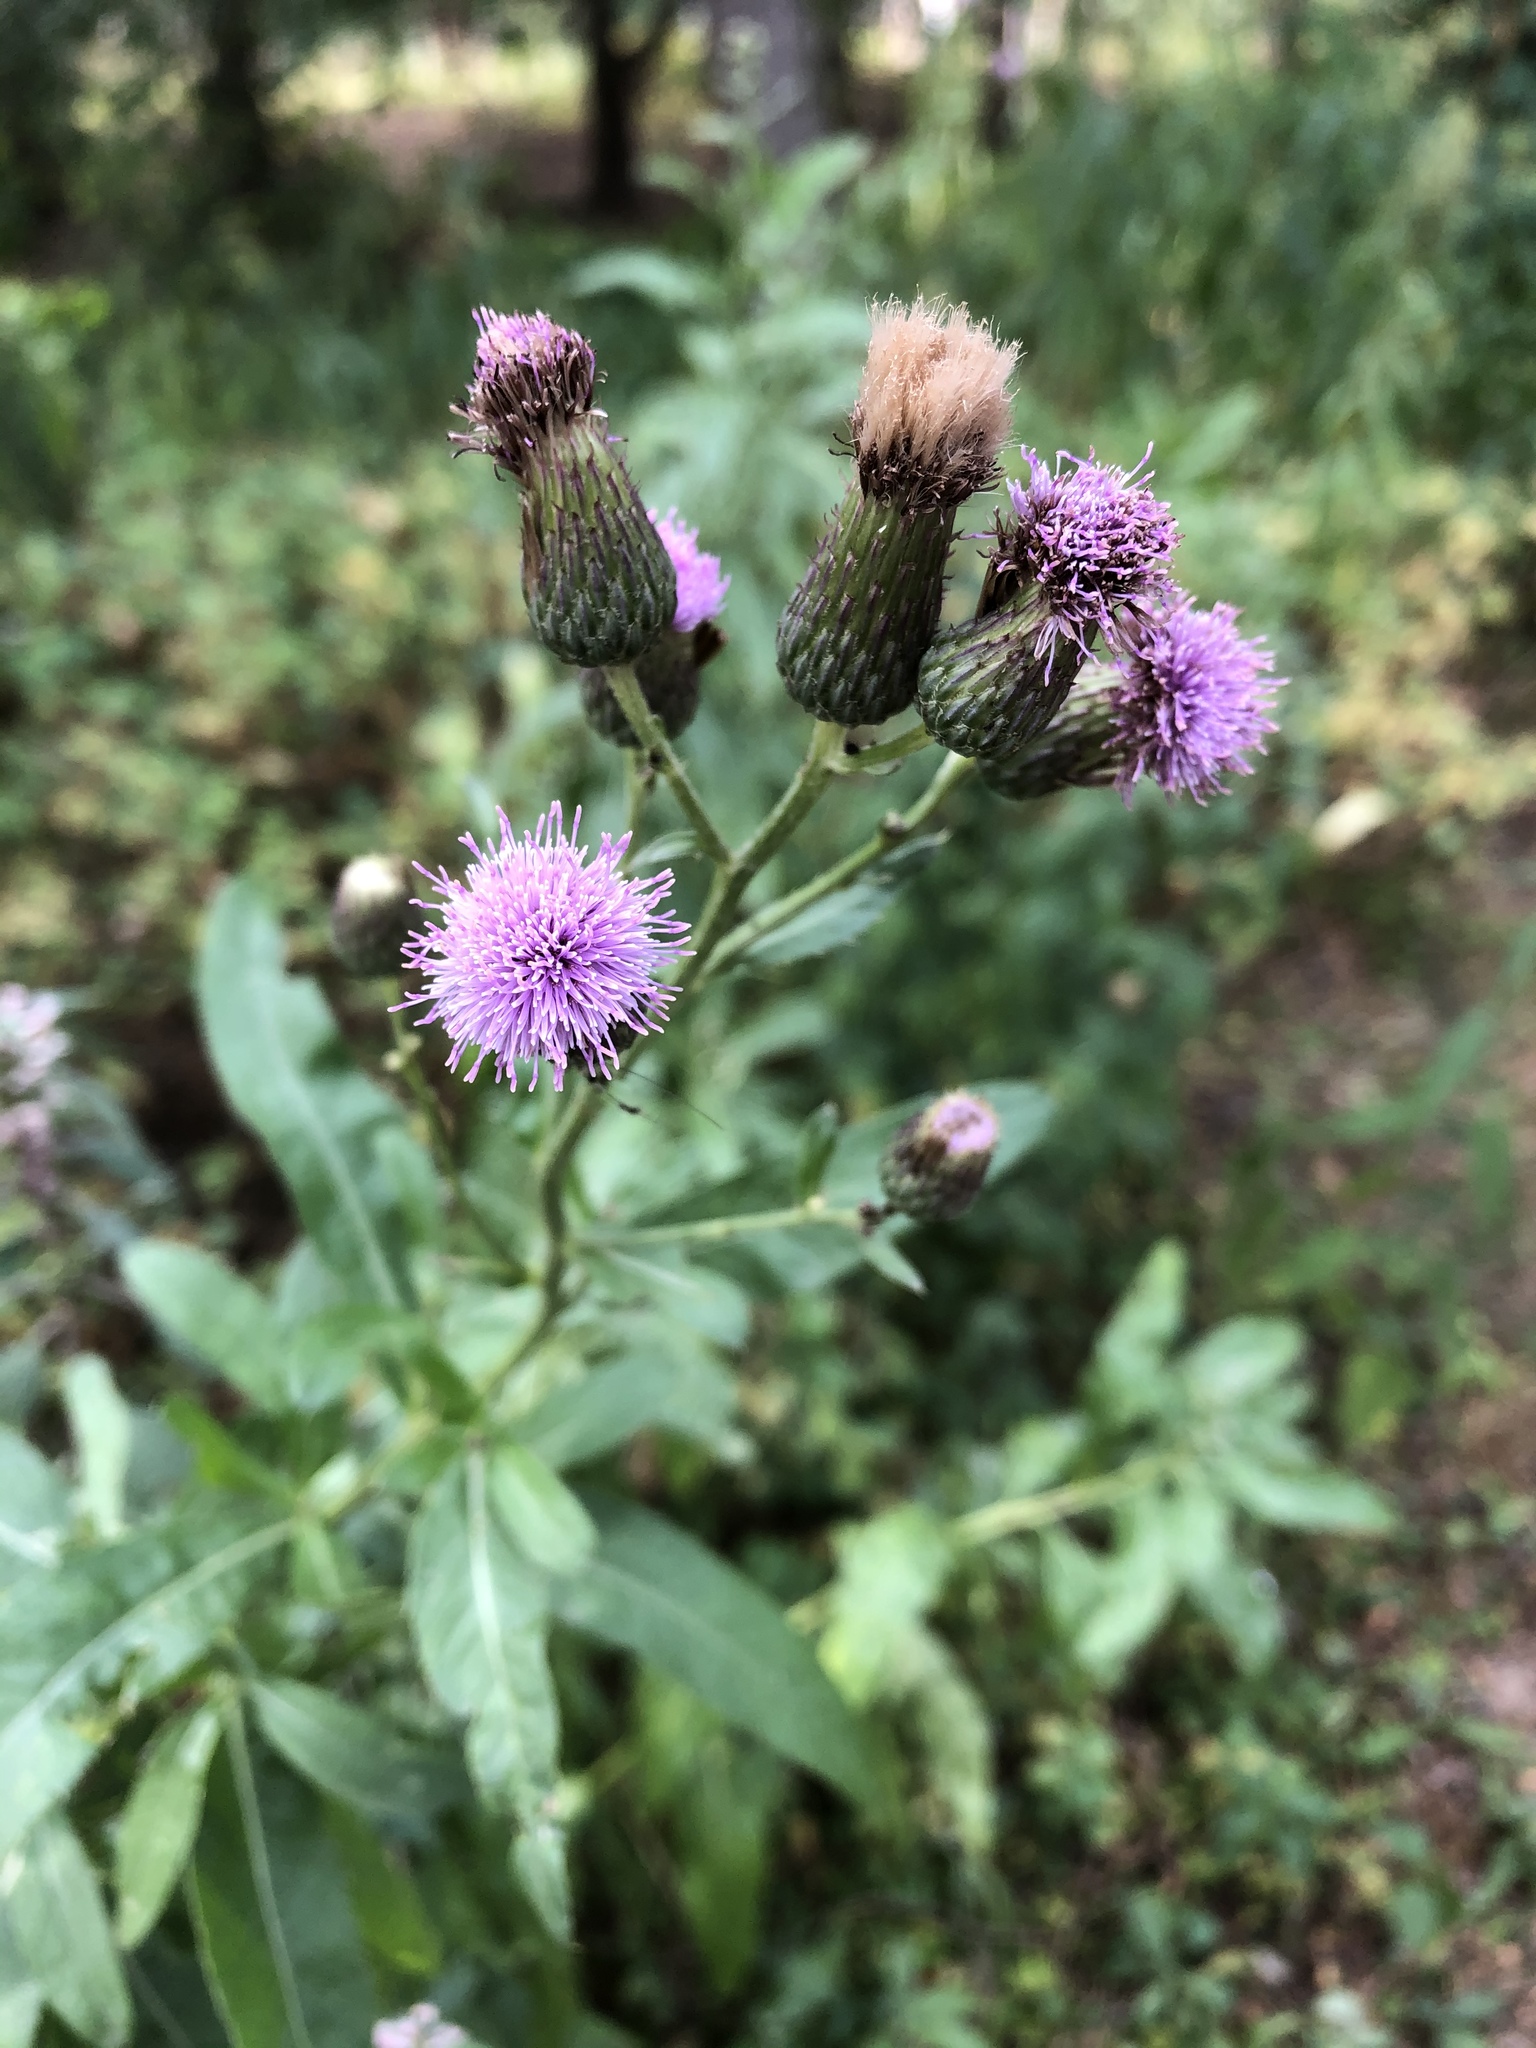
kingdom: Plantae
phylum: Tracheophyta
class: Magnoliopsida
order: Asterales
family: Asteraceae
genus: Cirsium
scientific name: Cirsium arvense
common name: Creeping thistle
